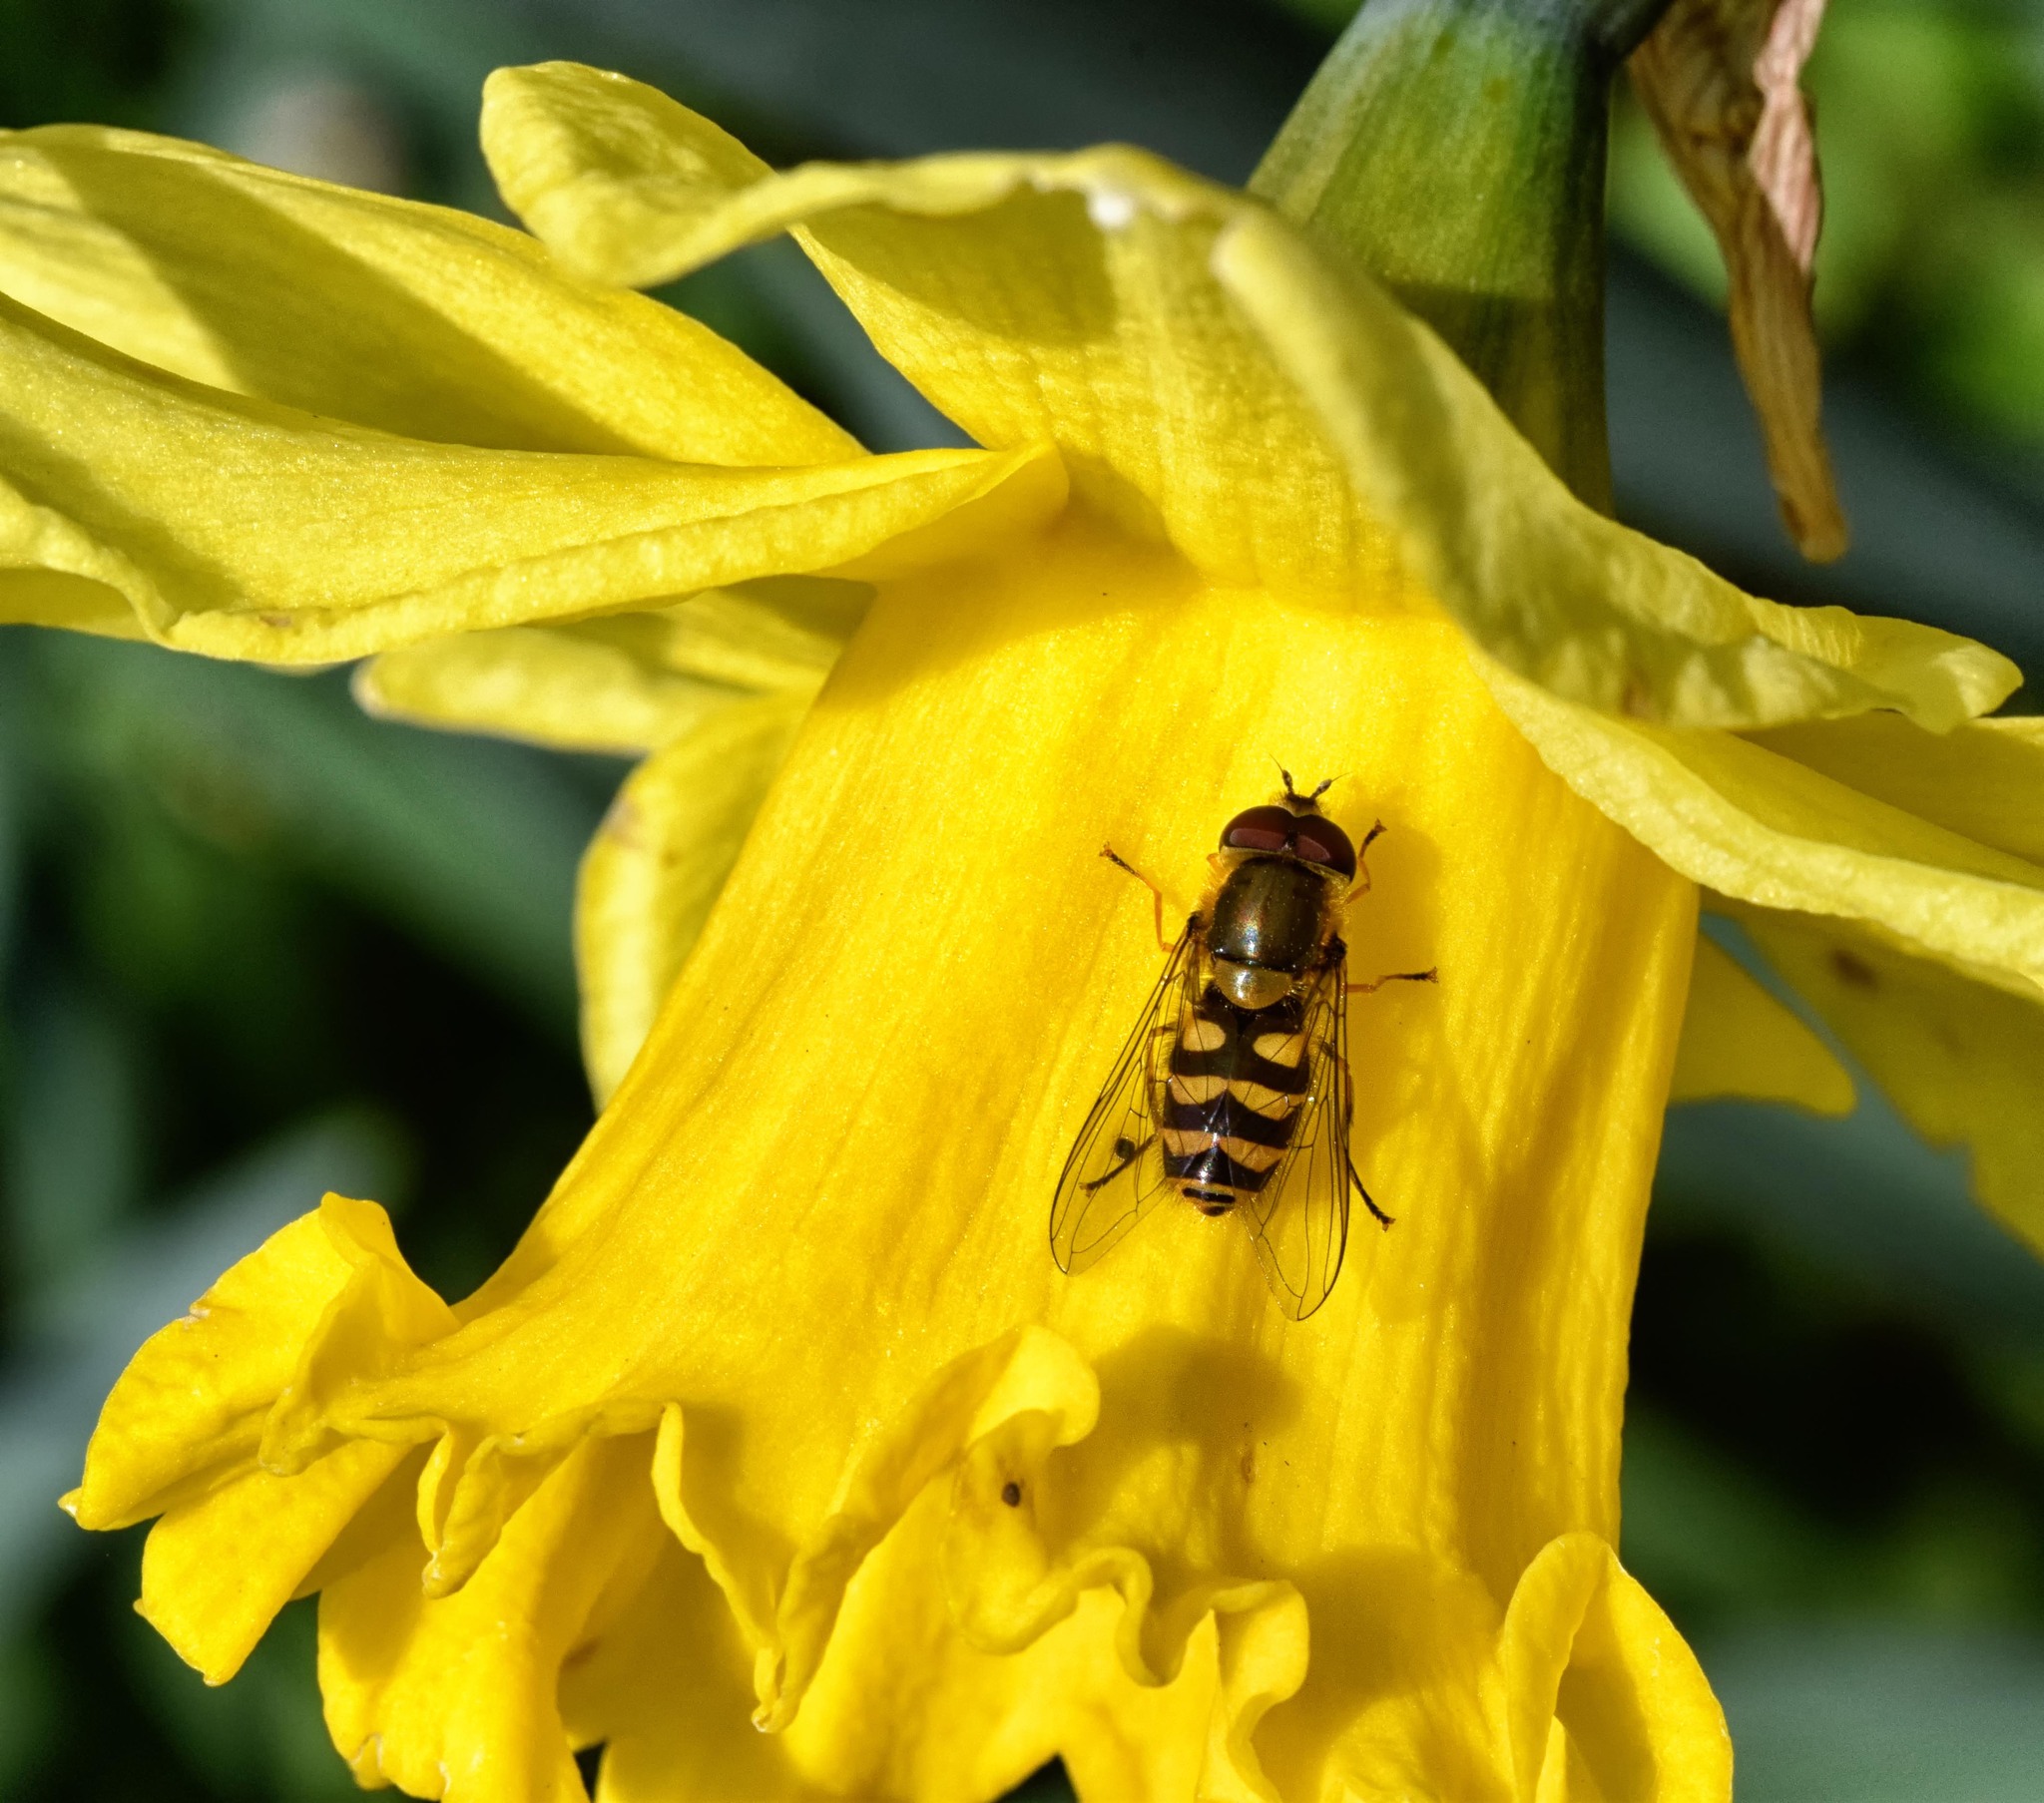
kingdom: Animalia
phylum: Arthropoda
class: Insecta
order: Diptera
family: Syrphidae
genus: Syrphus
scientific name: Syrphus
